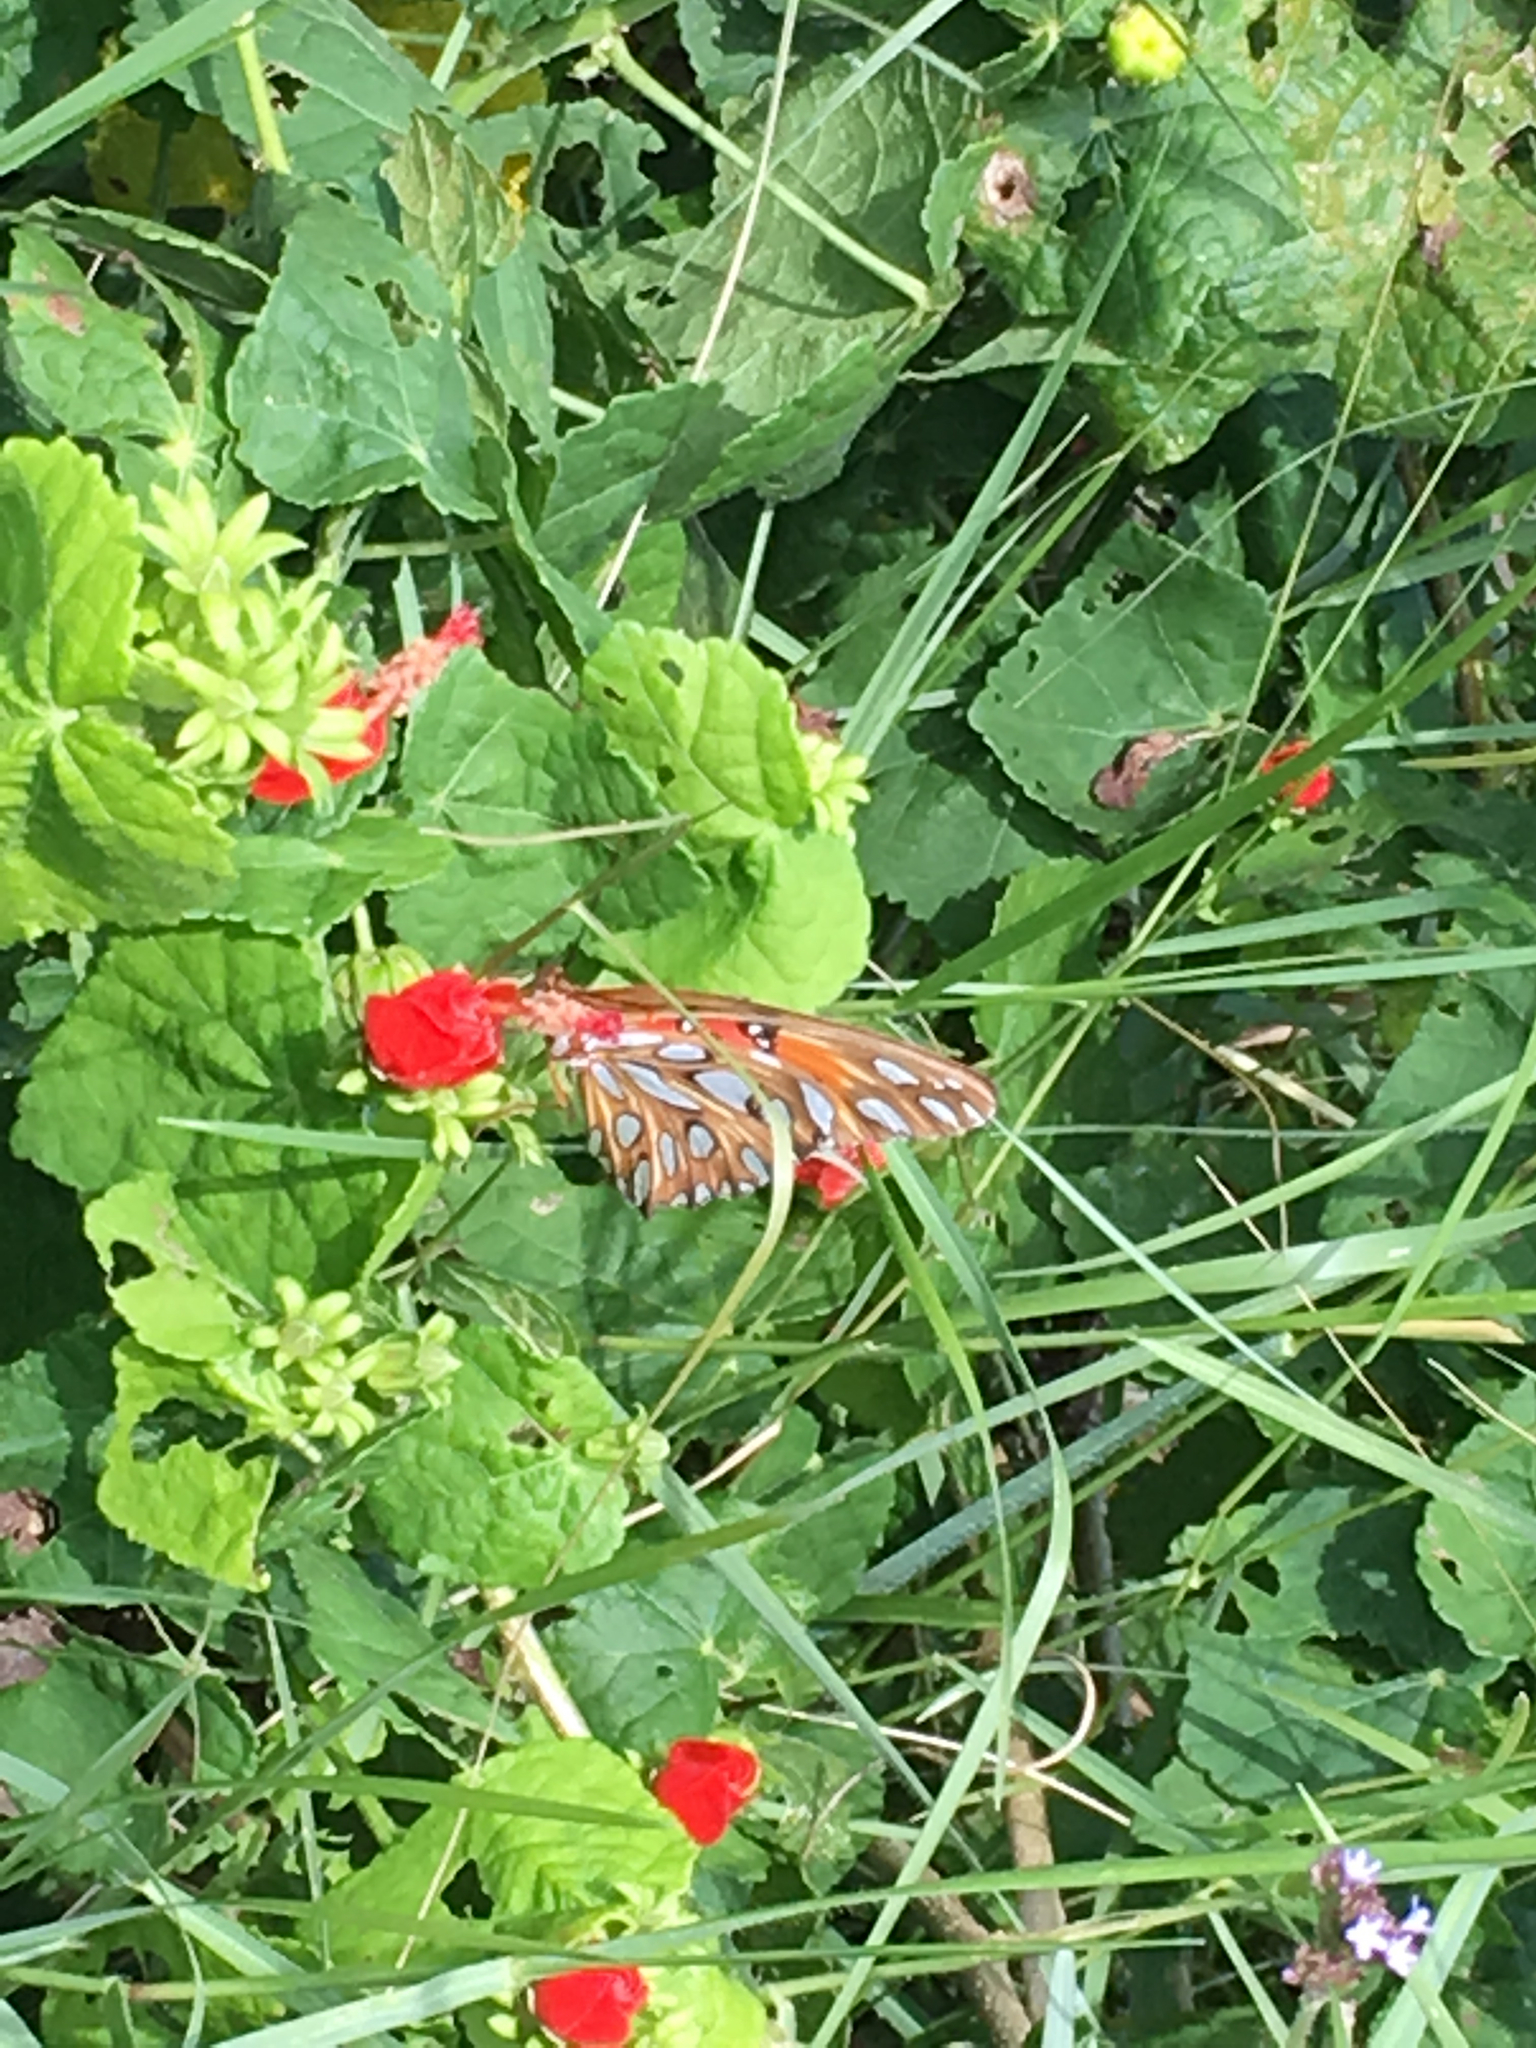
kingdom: Animalia
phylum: Arthropoda
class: Insecta
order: Lepidoptera
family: Nymphalidae
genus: Dione
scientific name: Dione vanillae
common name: Gulf fritillary
